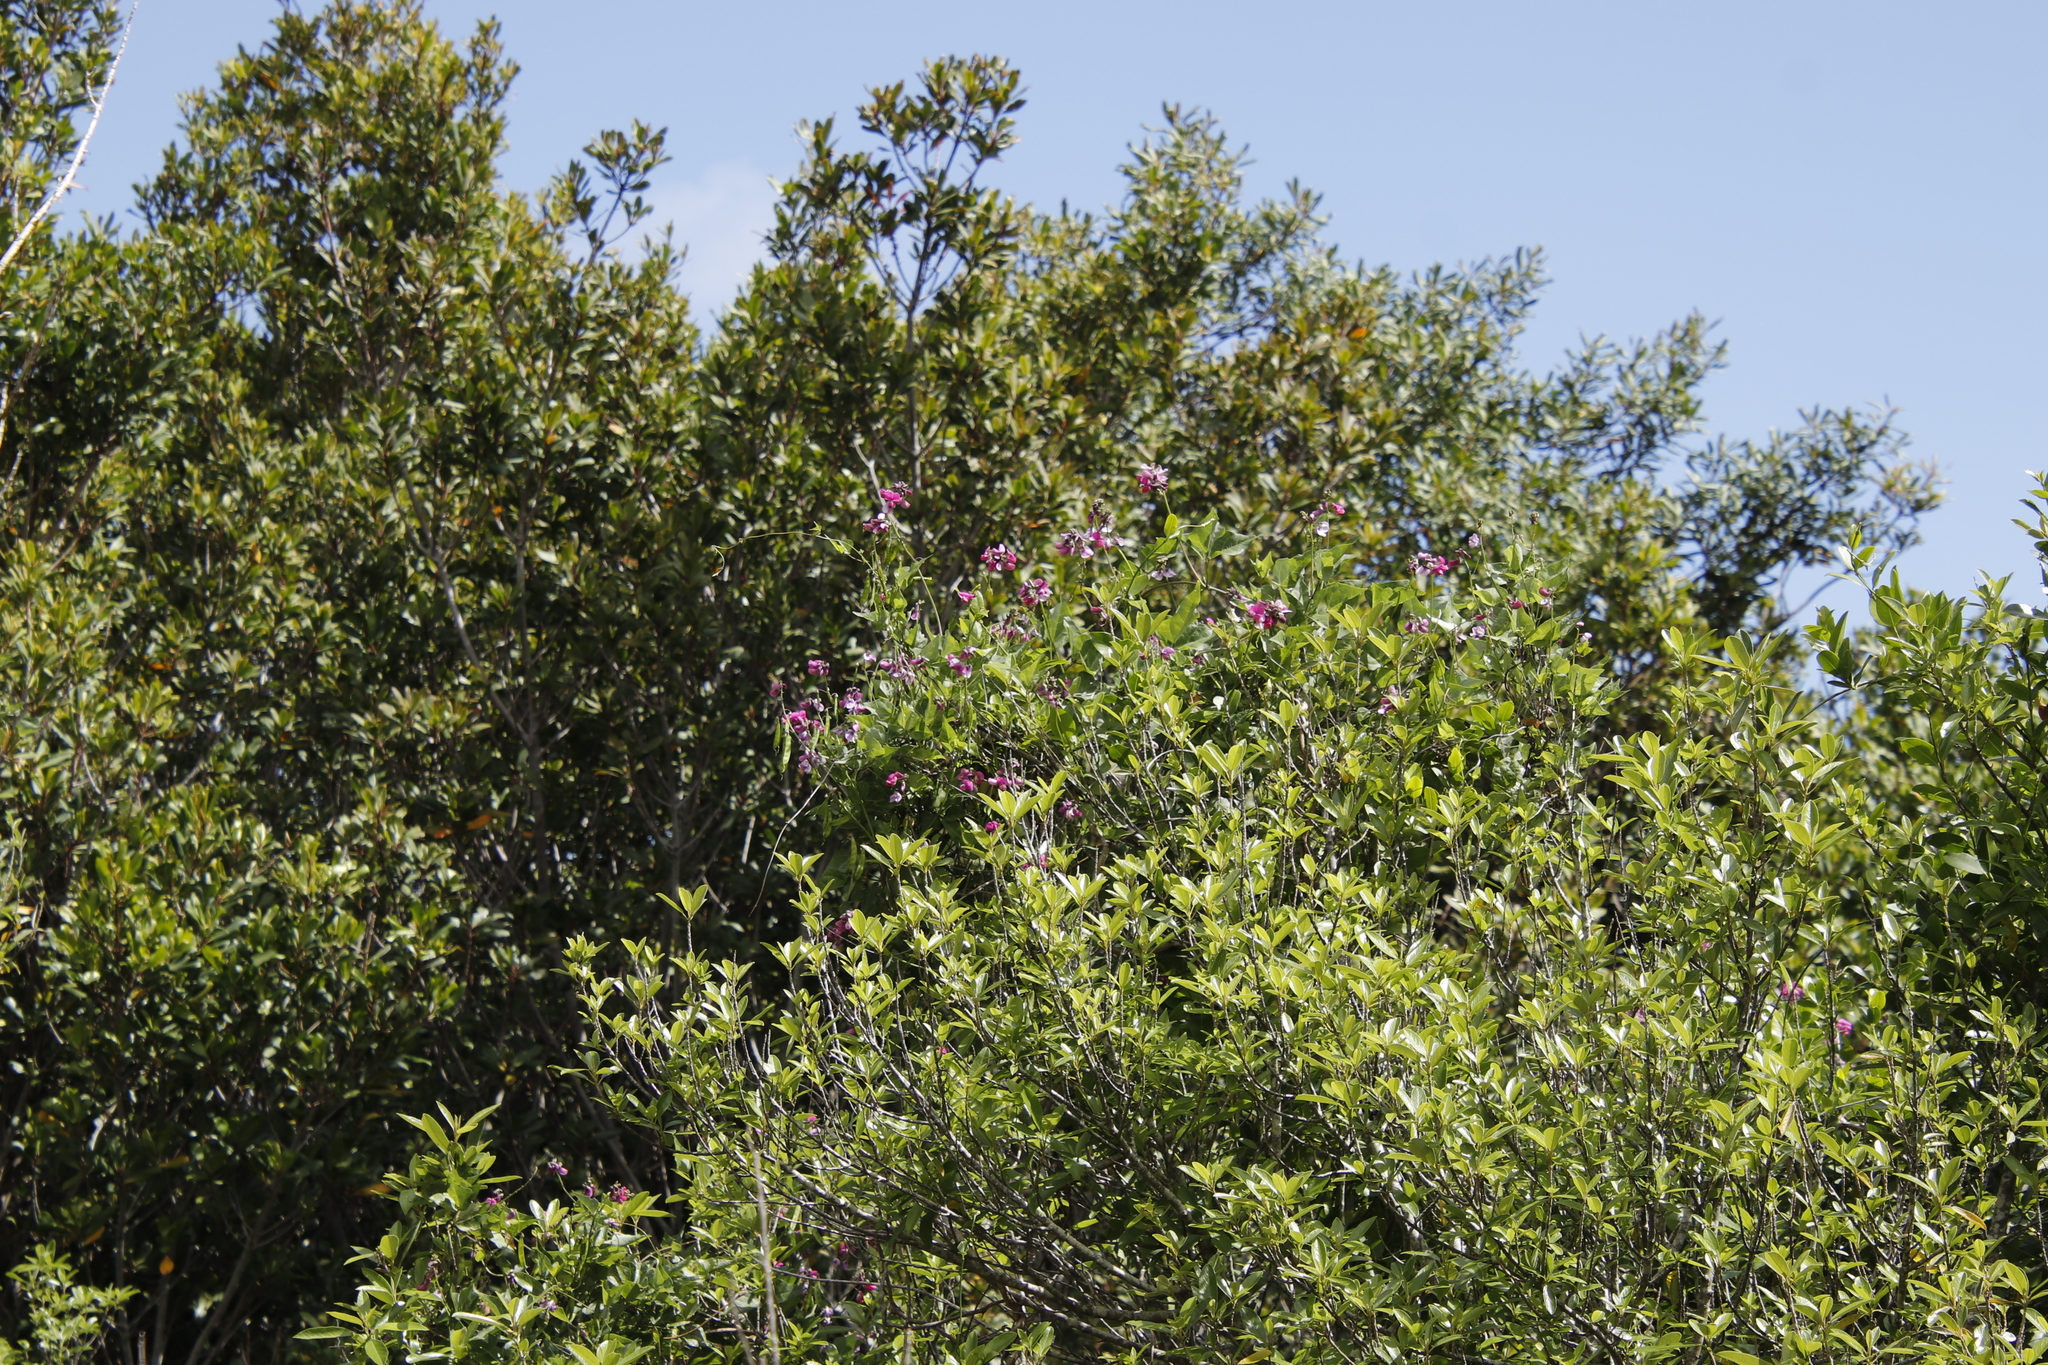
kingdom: Plantae
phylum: Tracheophyta
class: Magnoliopsida
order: Fabales
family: Fabaceae
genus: Dipogon
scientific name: Dipogon lignosus
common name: Okie bean
